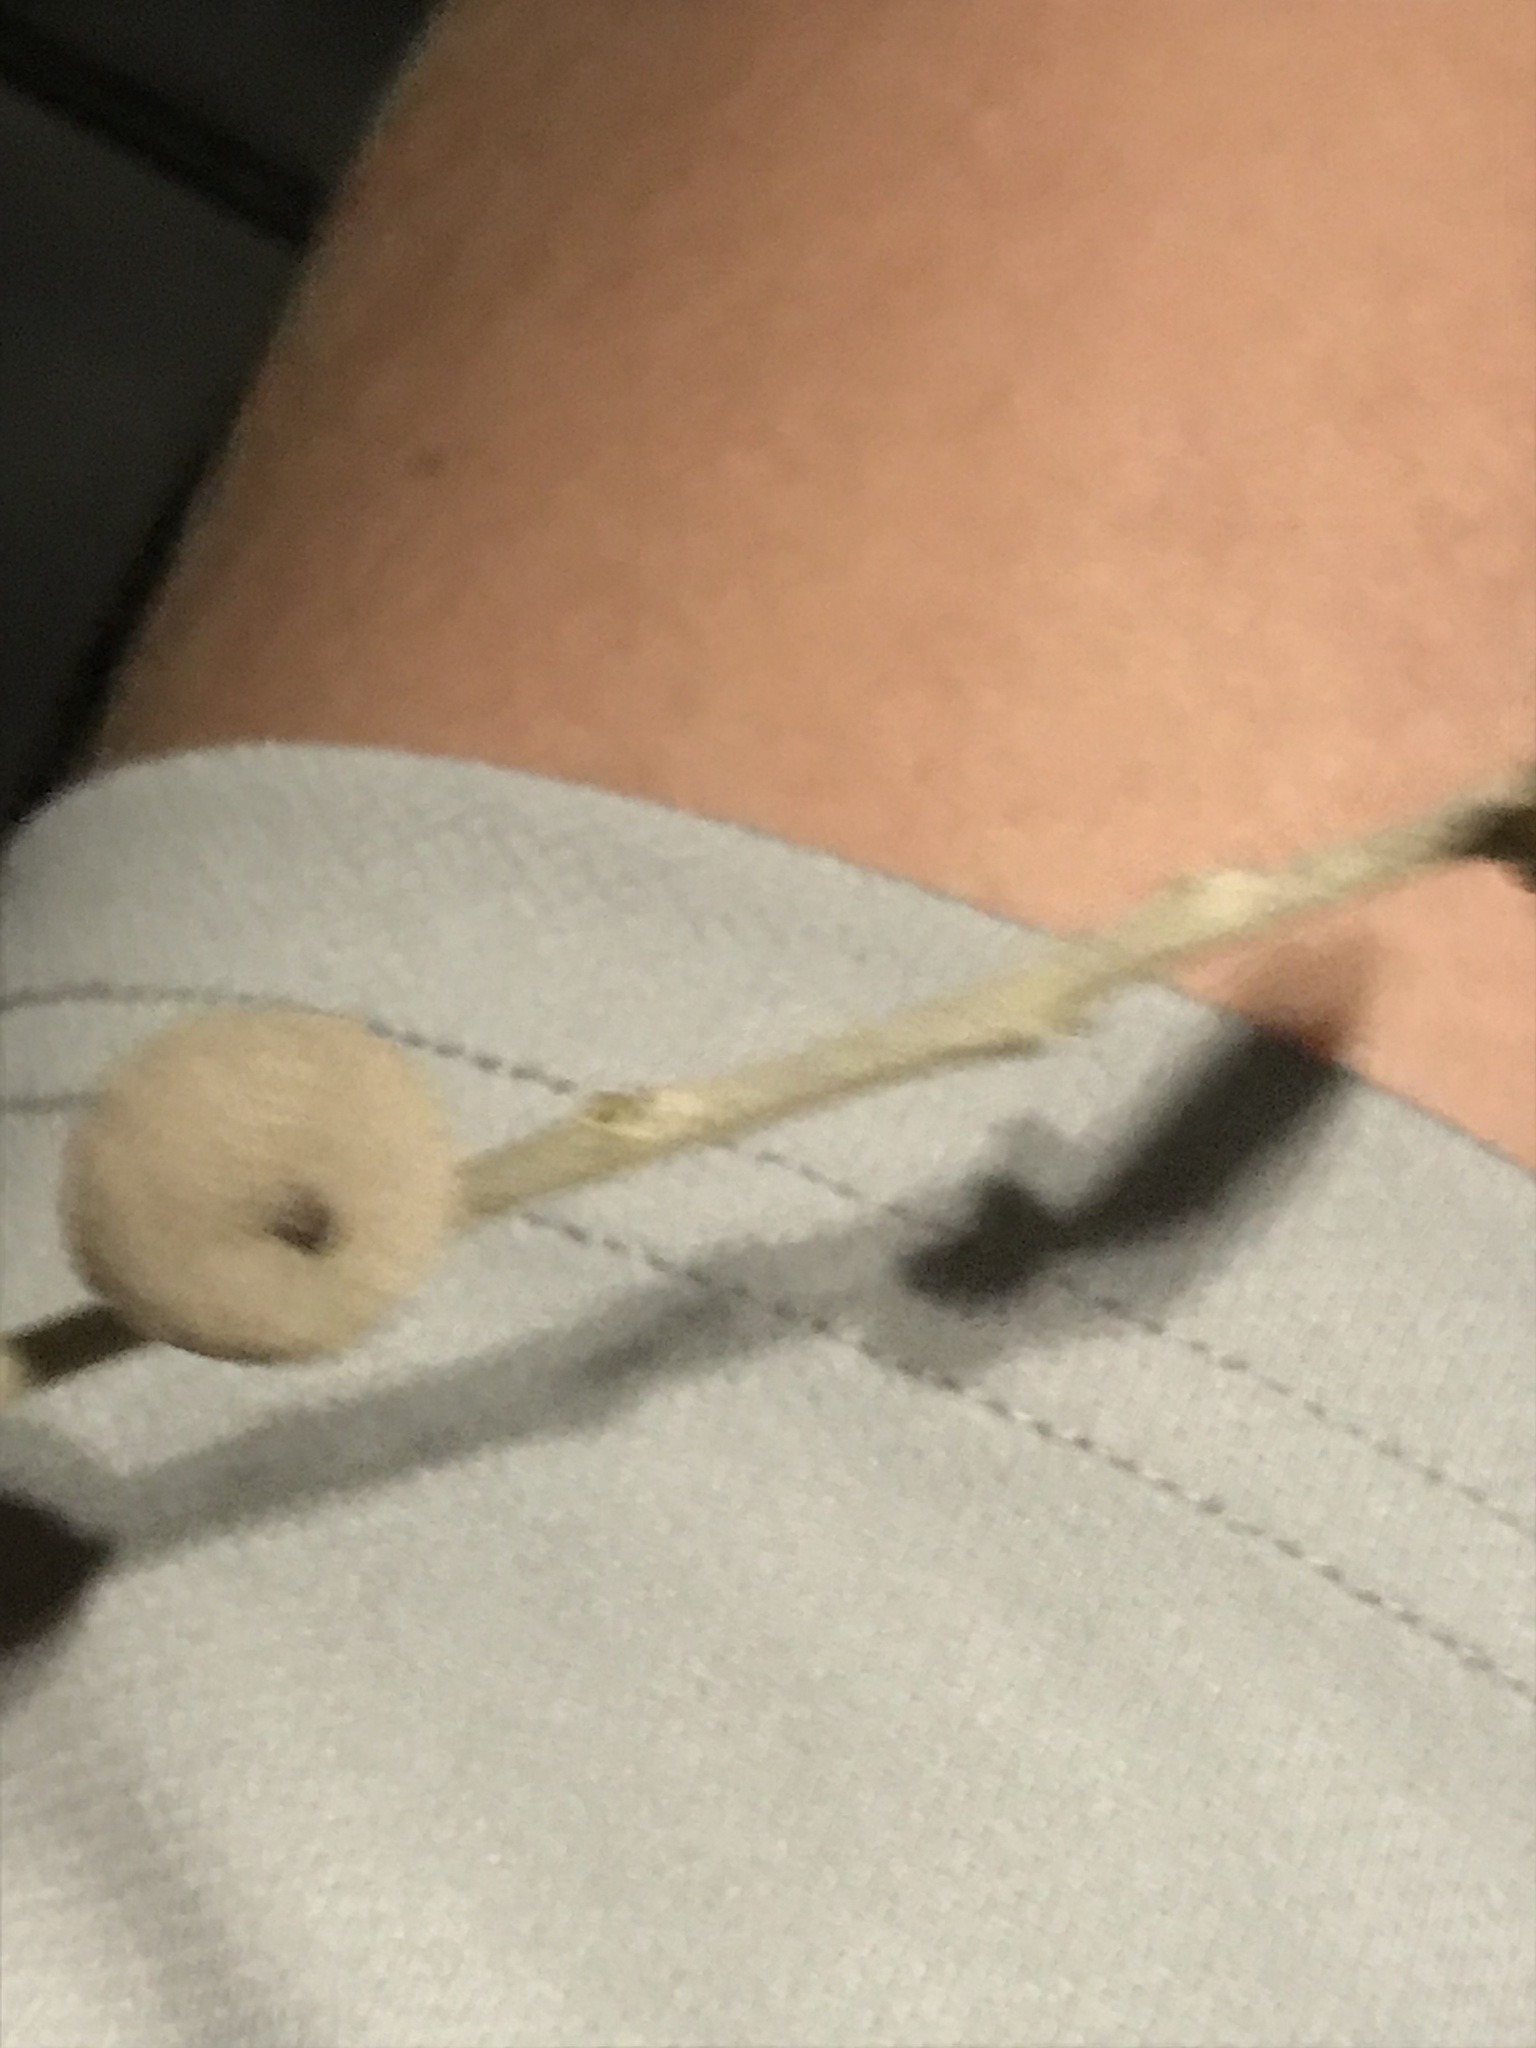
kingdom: Animalia
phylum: Arthropoda
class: Insecta
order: Hymenoptera
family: Cynipidae
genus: Disholcaspis
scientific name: Disholcaspis
